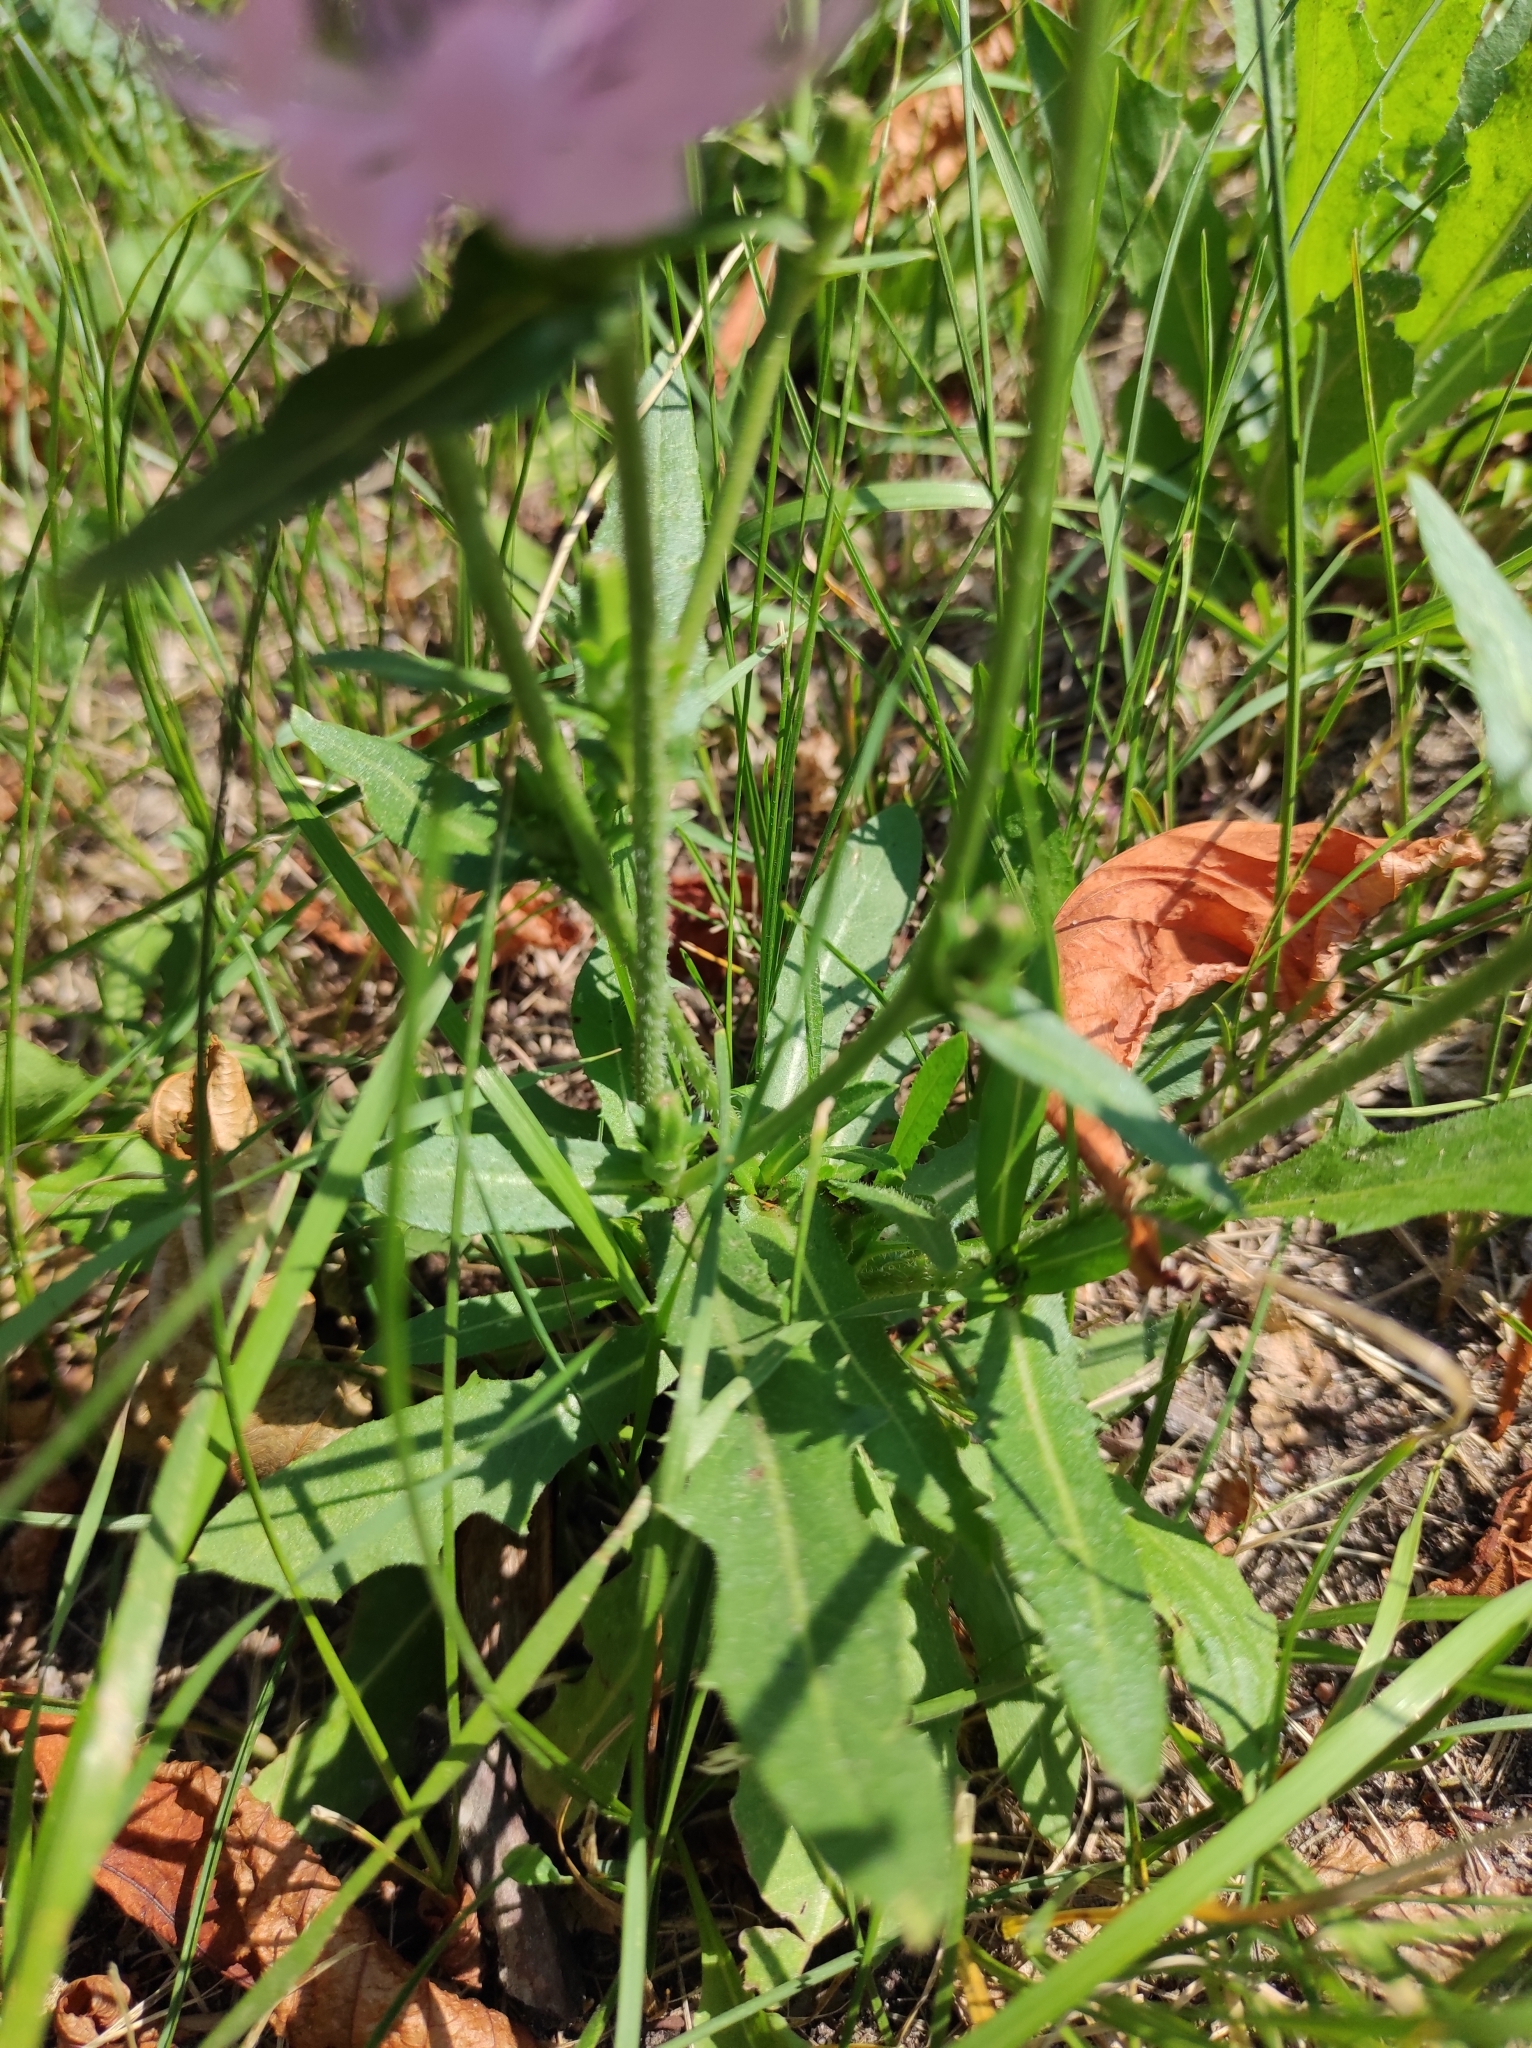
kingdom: Plantae
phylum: Tracheophyta
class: Magnoliopsida
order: Asterales
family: Asteraceae
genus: Cichorium
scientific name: Cichorium intybus
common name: Chicory
